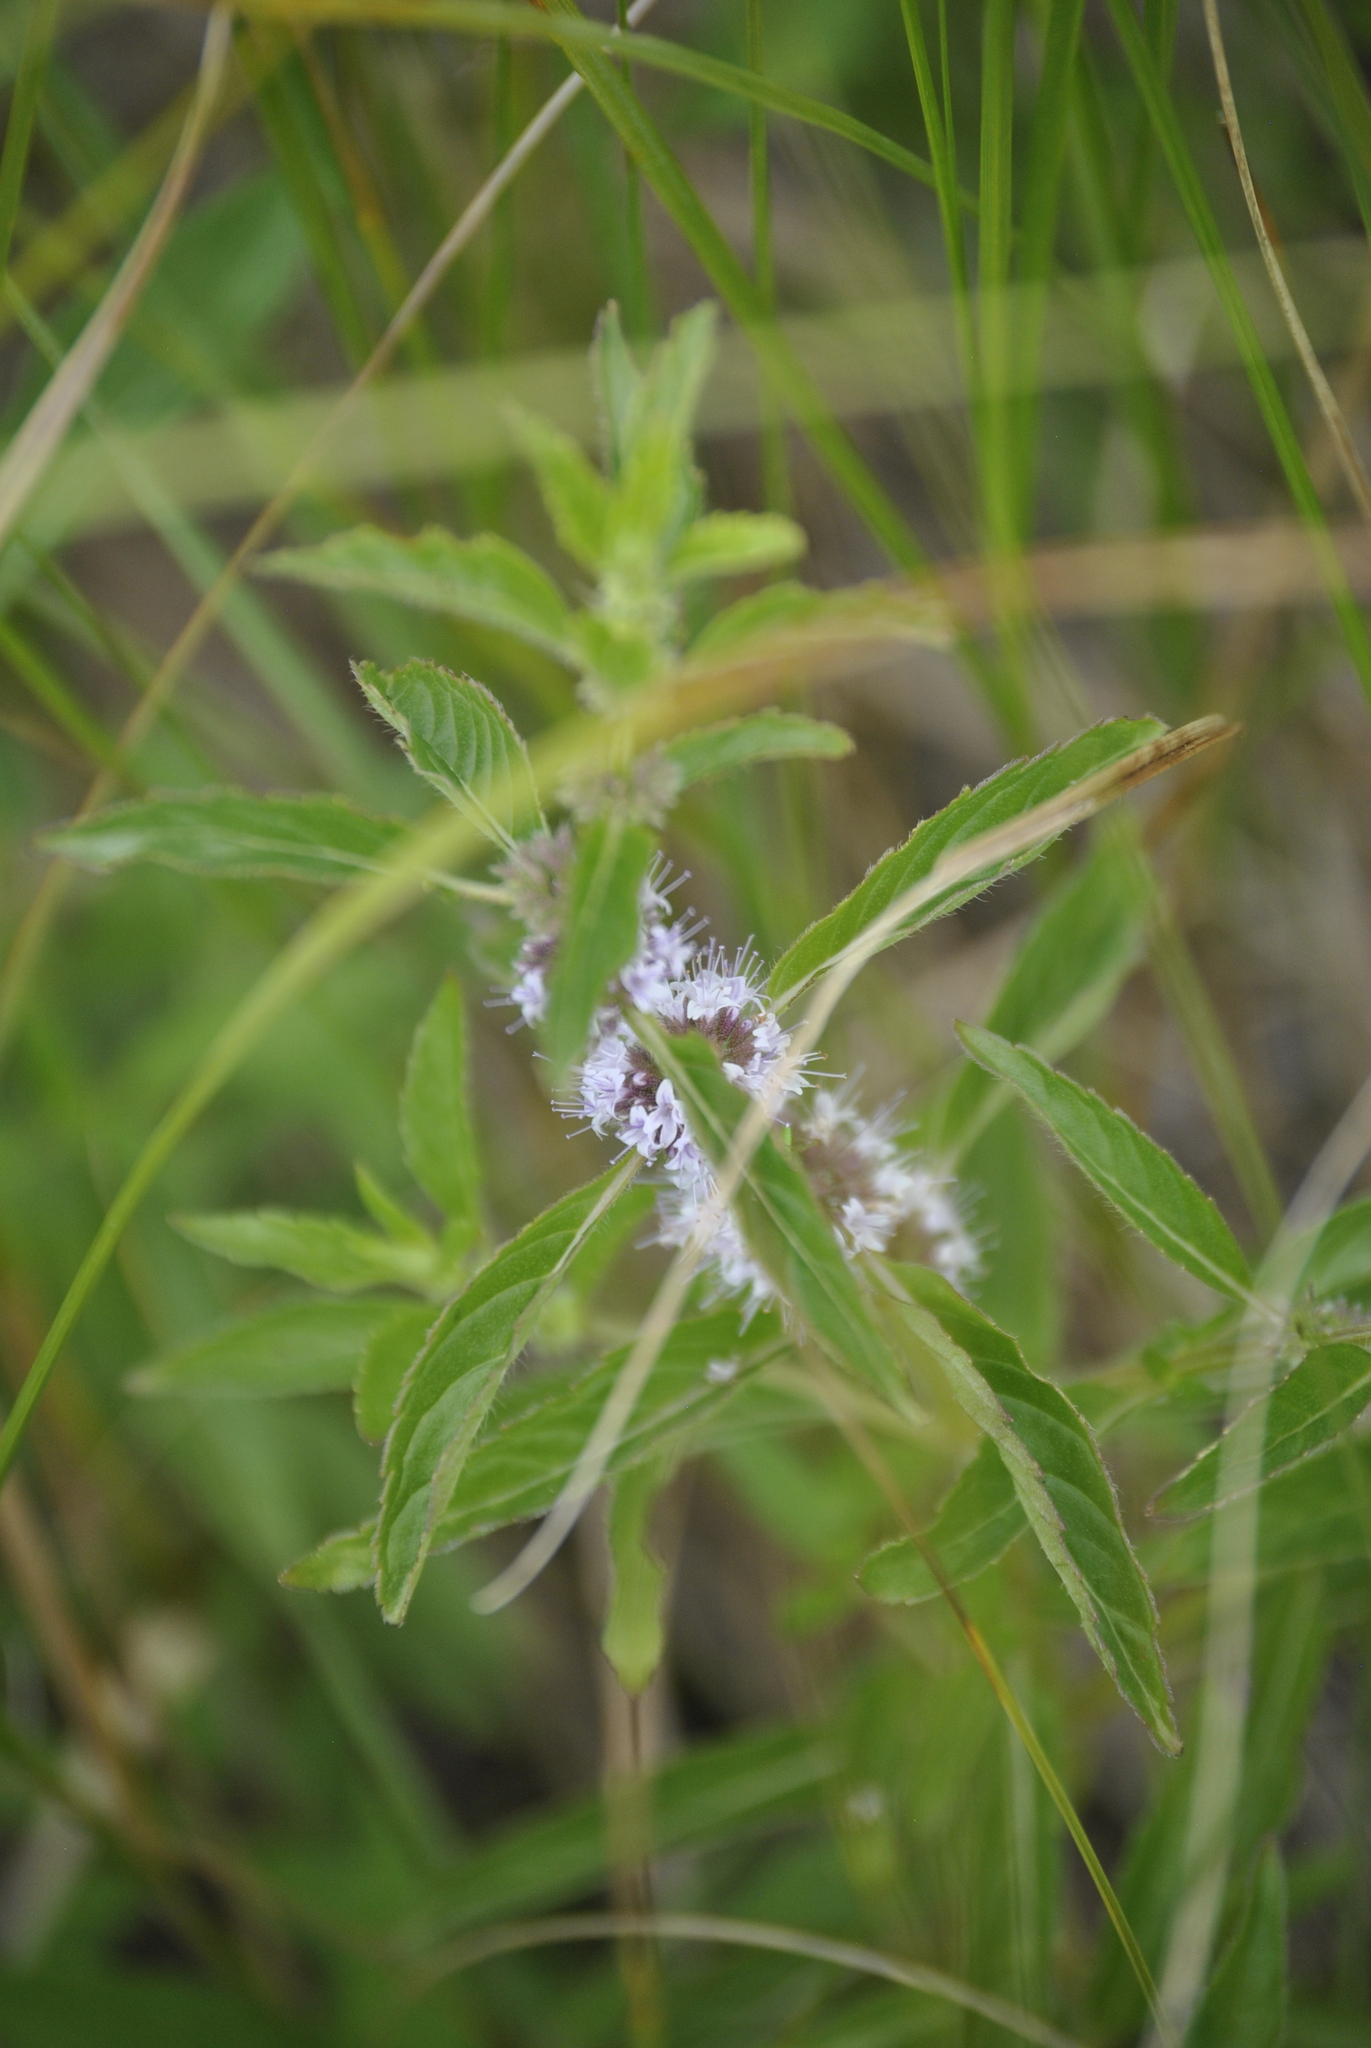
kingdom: Plantae
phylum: Tracheophyta
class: Magnoliopsida
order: Lamiales
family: Lamiaceae
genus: Mentha
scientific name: Mentha canadensis
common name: American corn mint
